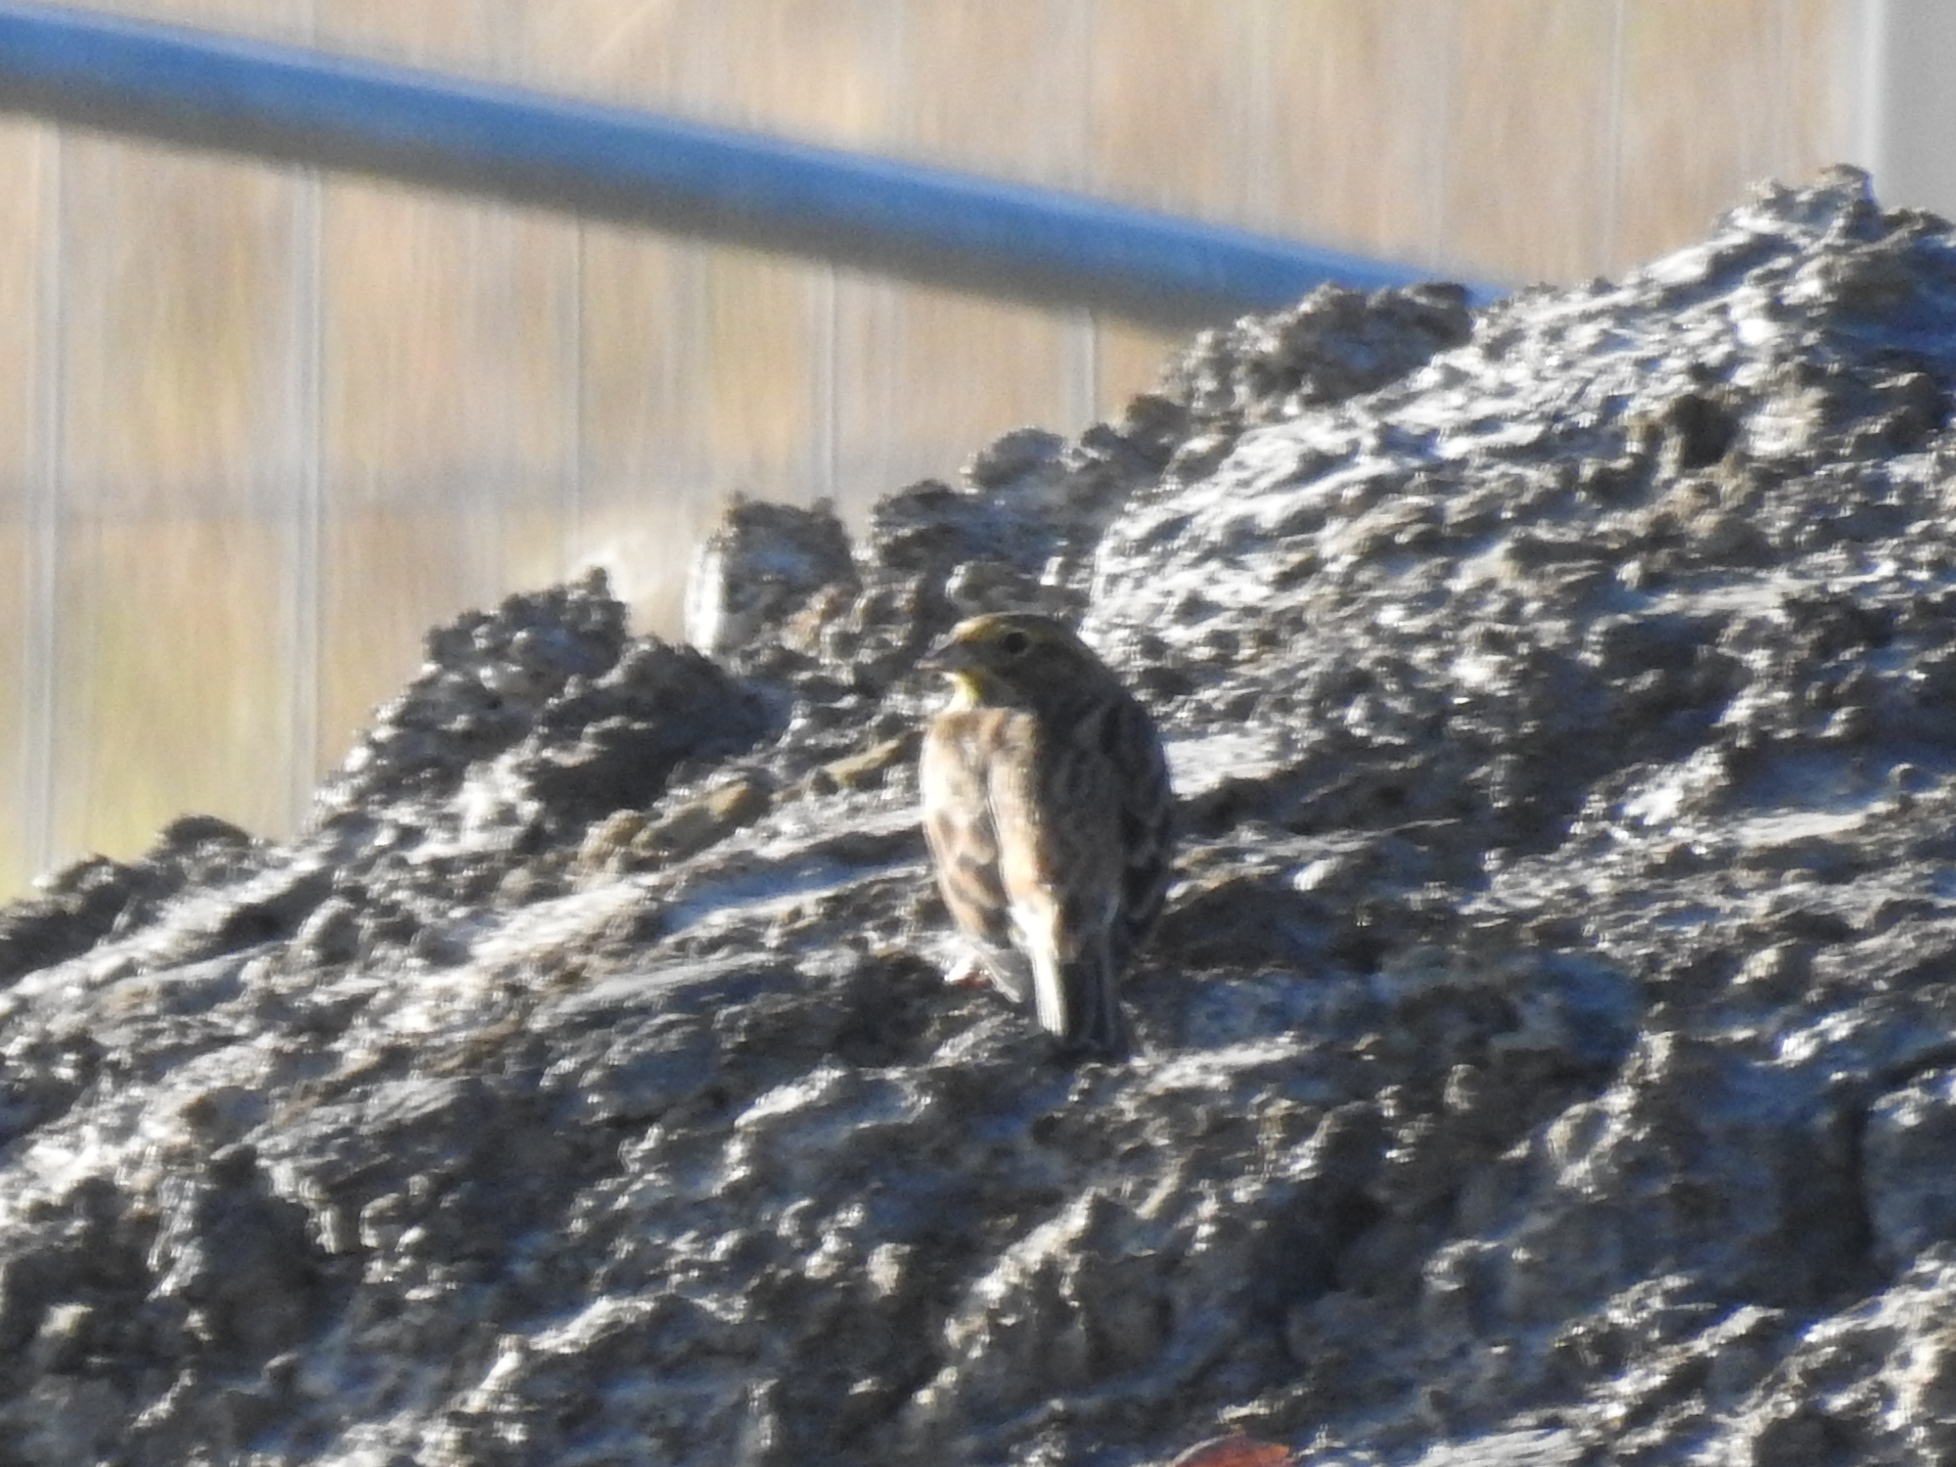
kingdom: Animalia
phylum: Chordata
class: Aves
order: Passeriformes
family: Emberizidae
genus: Emberiza
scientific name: Emberiza citrinella
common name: Yellowhammer
